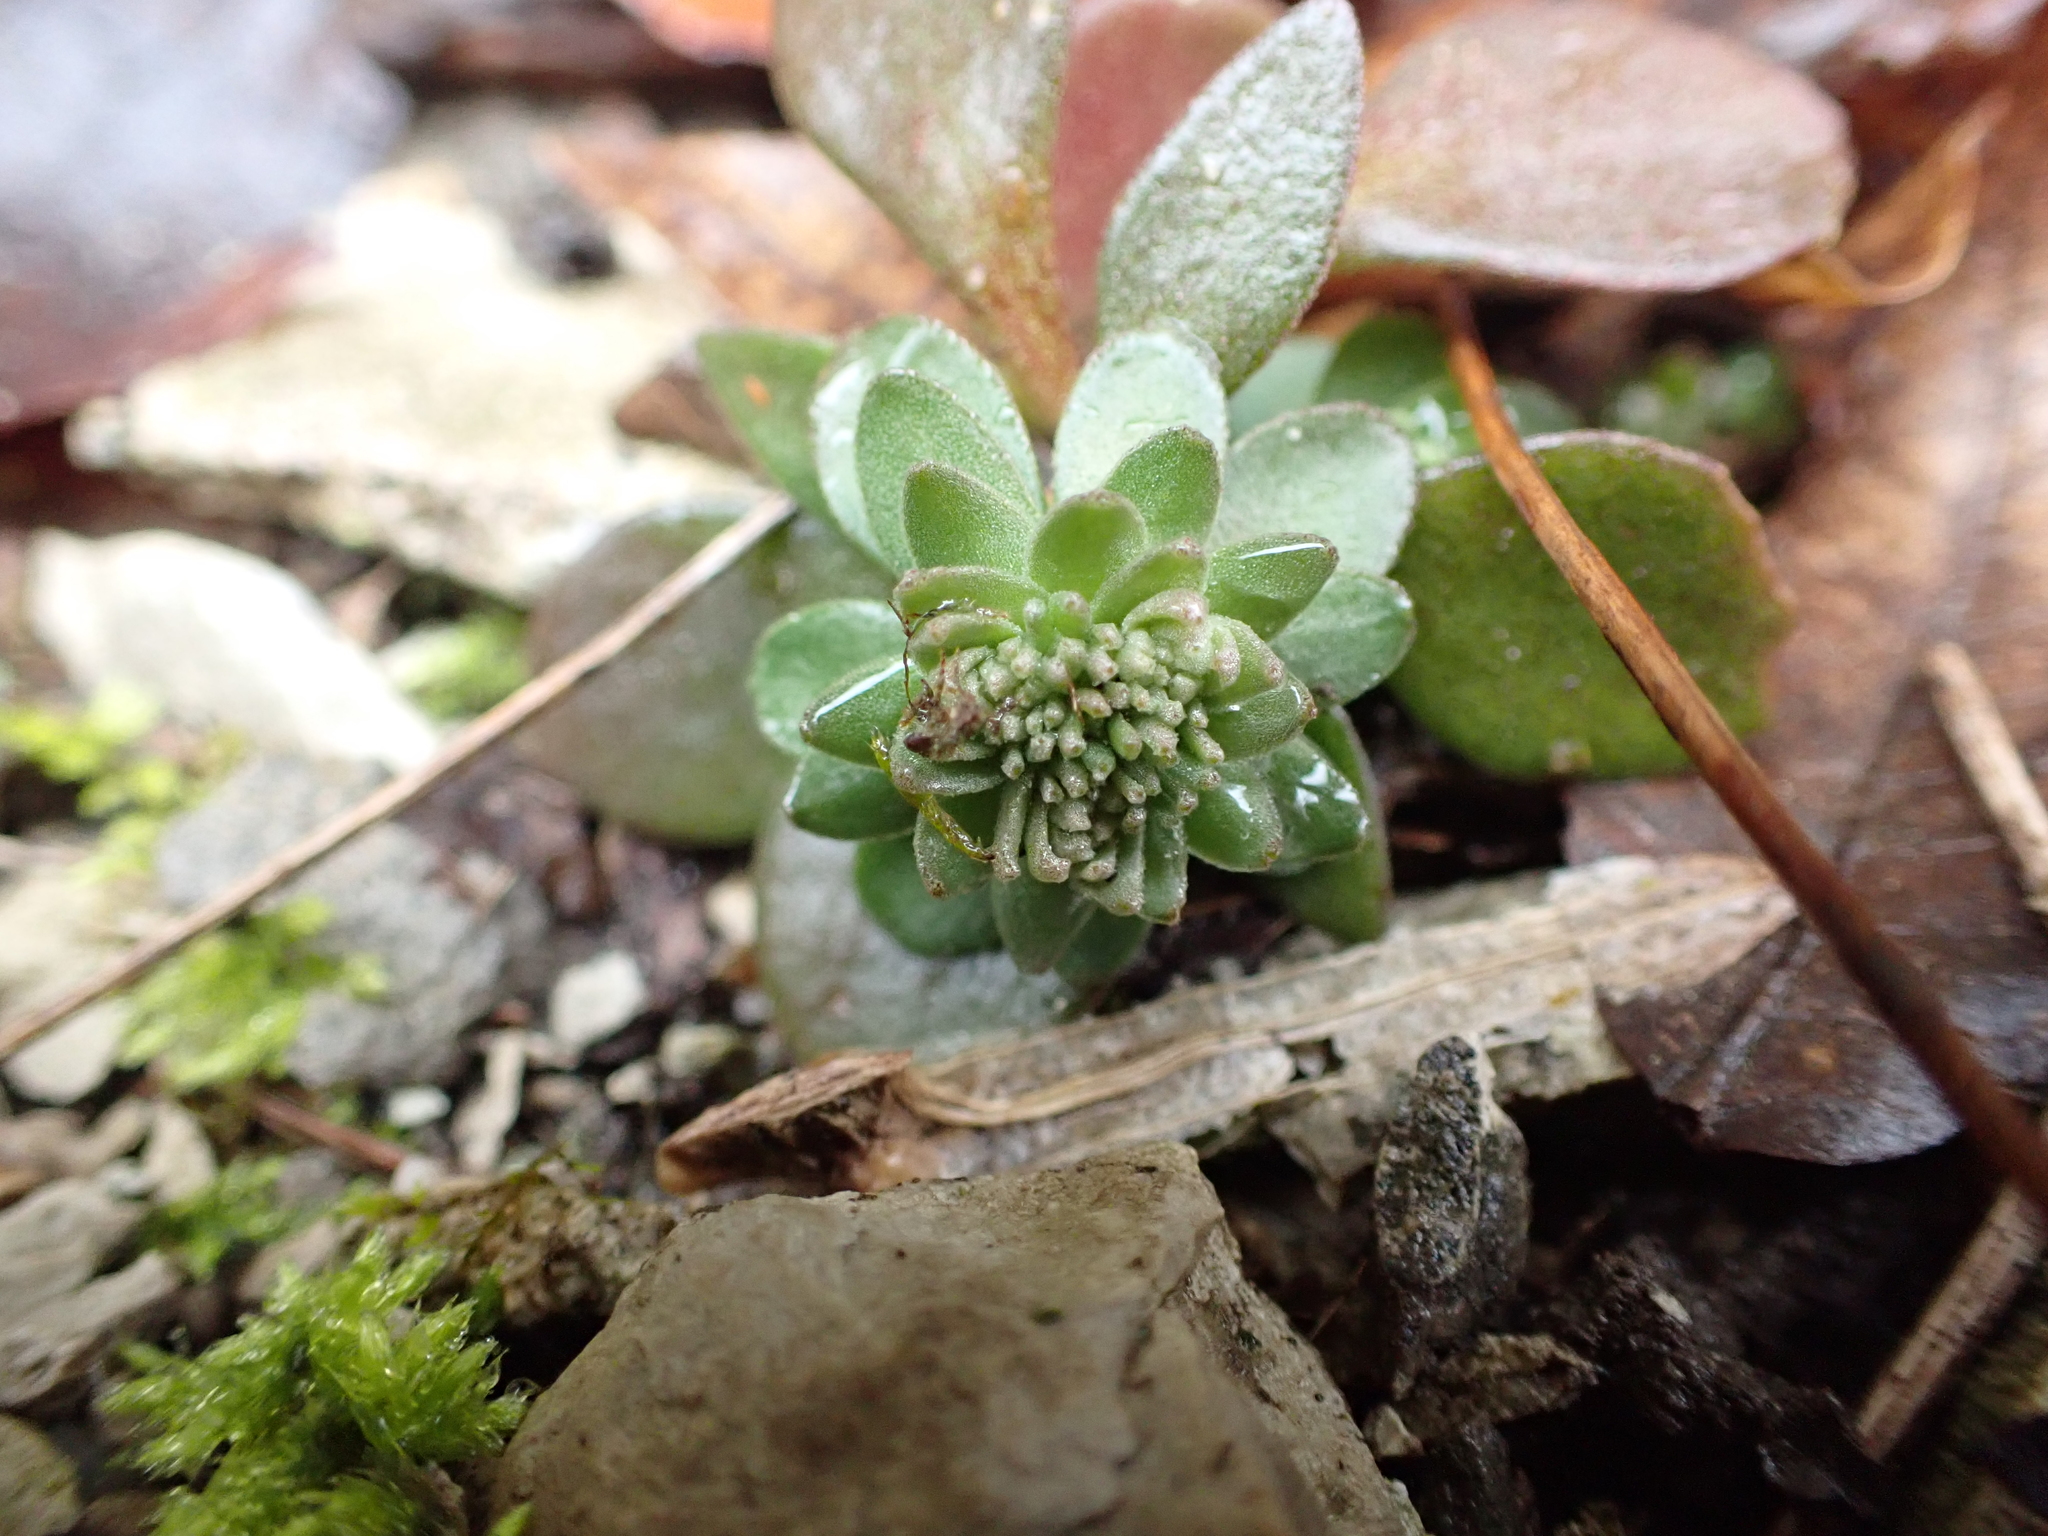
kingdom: Plantae
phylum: Tracheophyta
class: Magnoliopsida
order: Saxifragales
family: Crassulaceae
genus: Sedum
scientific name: Sedum ternatum
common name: Wild stonecrop
